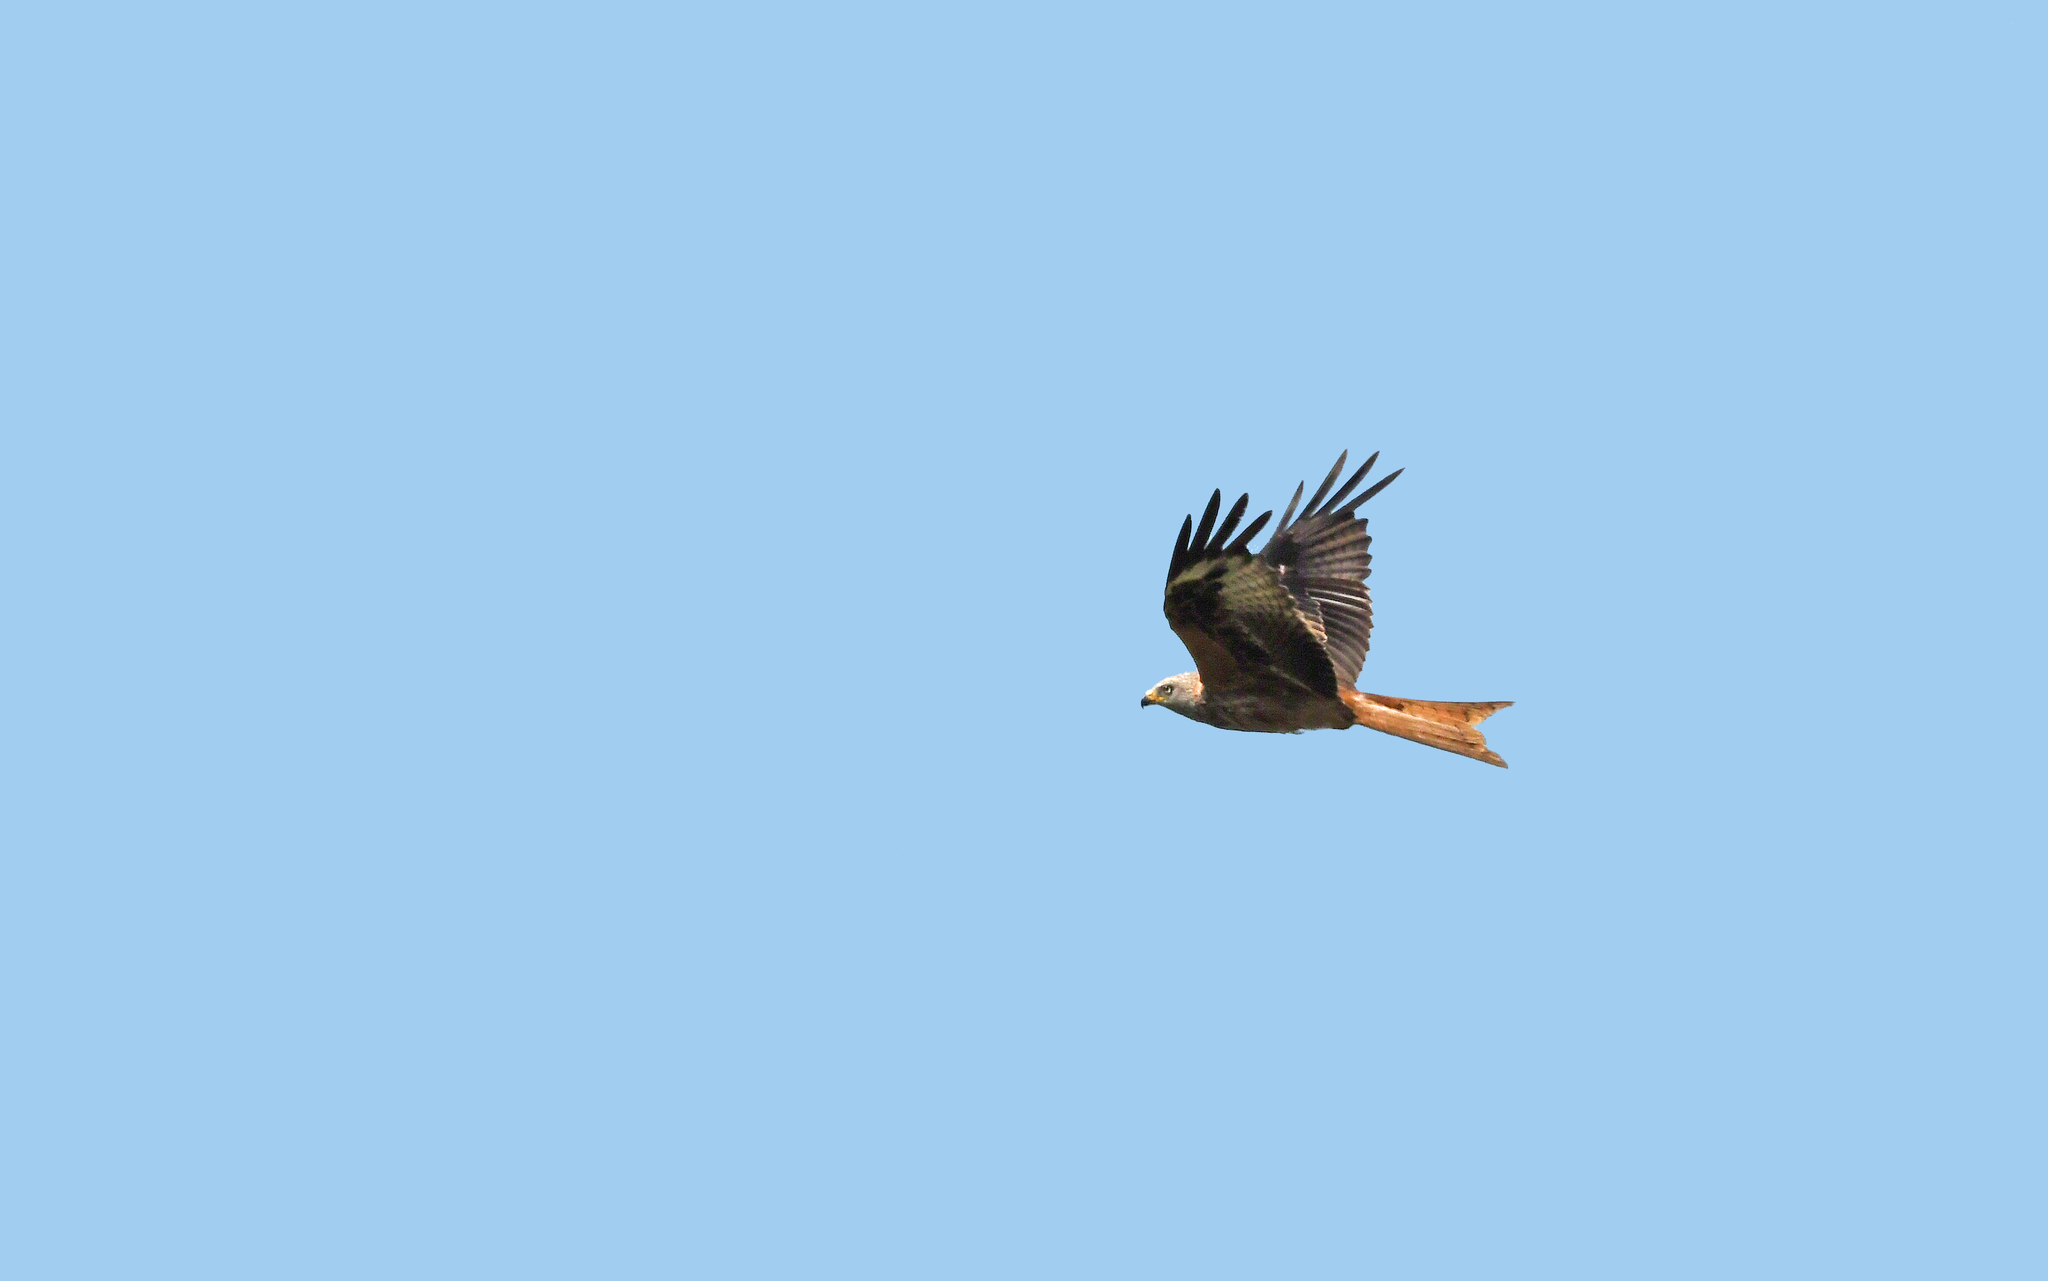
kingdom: Animalia
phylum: Chordata
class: Aves
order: Accipitriformes
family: Accipitridae
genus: Milvus
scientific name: Milvus milvus
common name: Red kite
